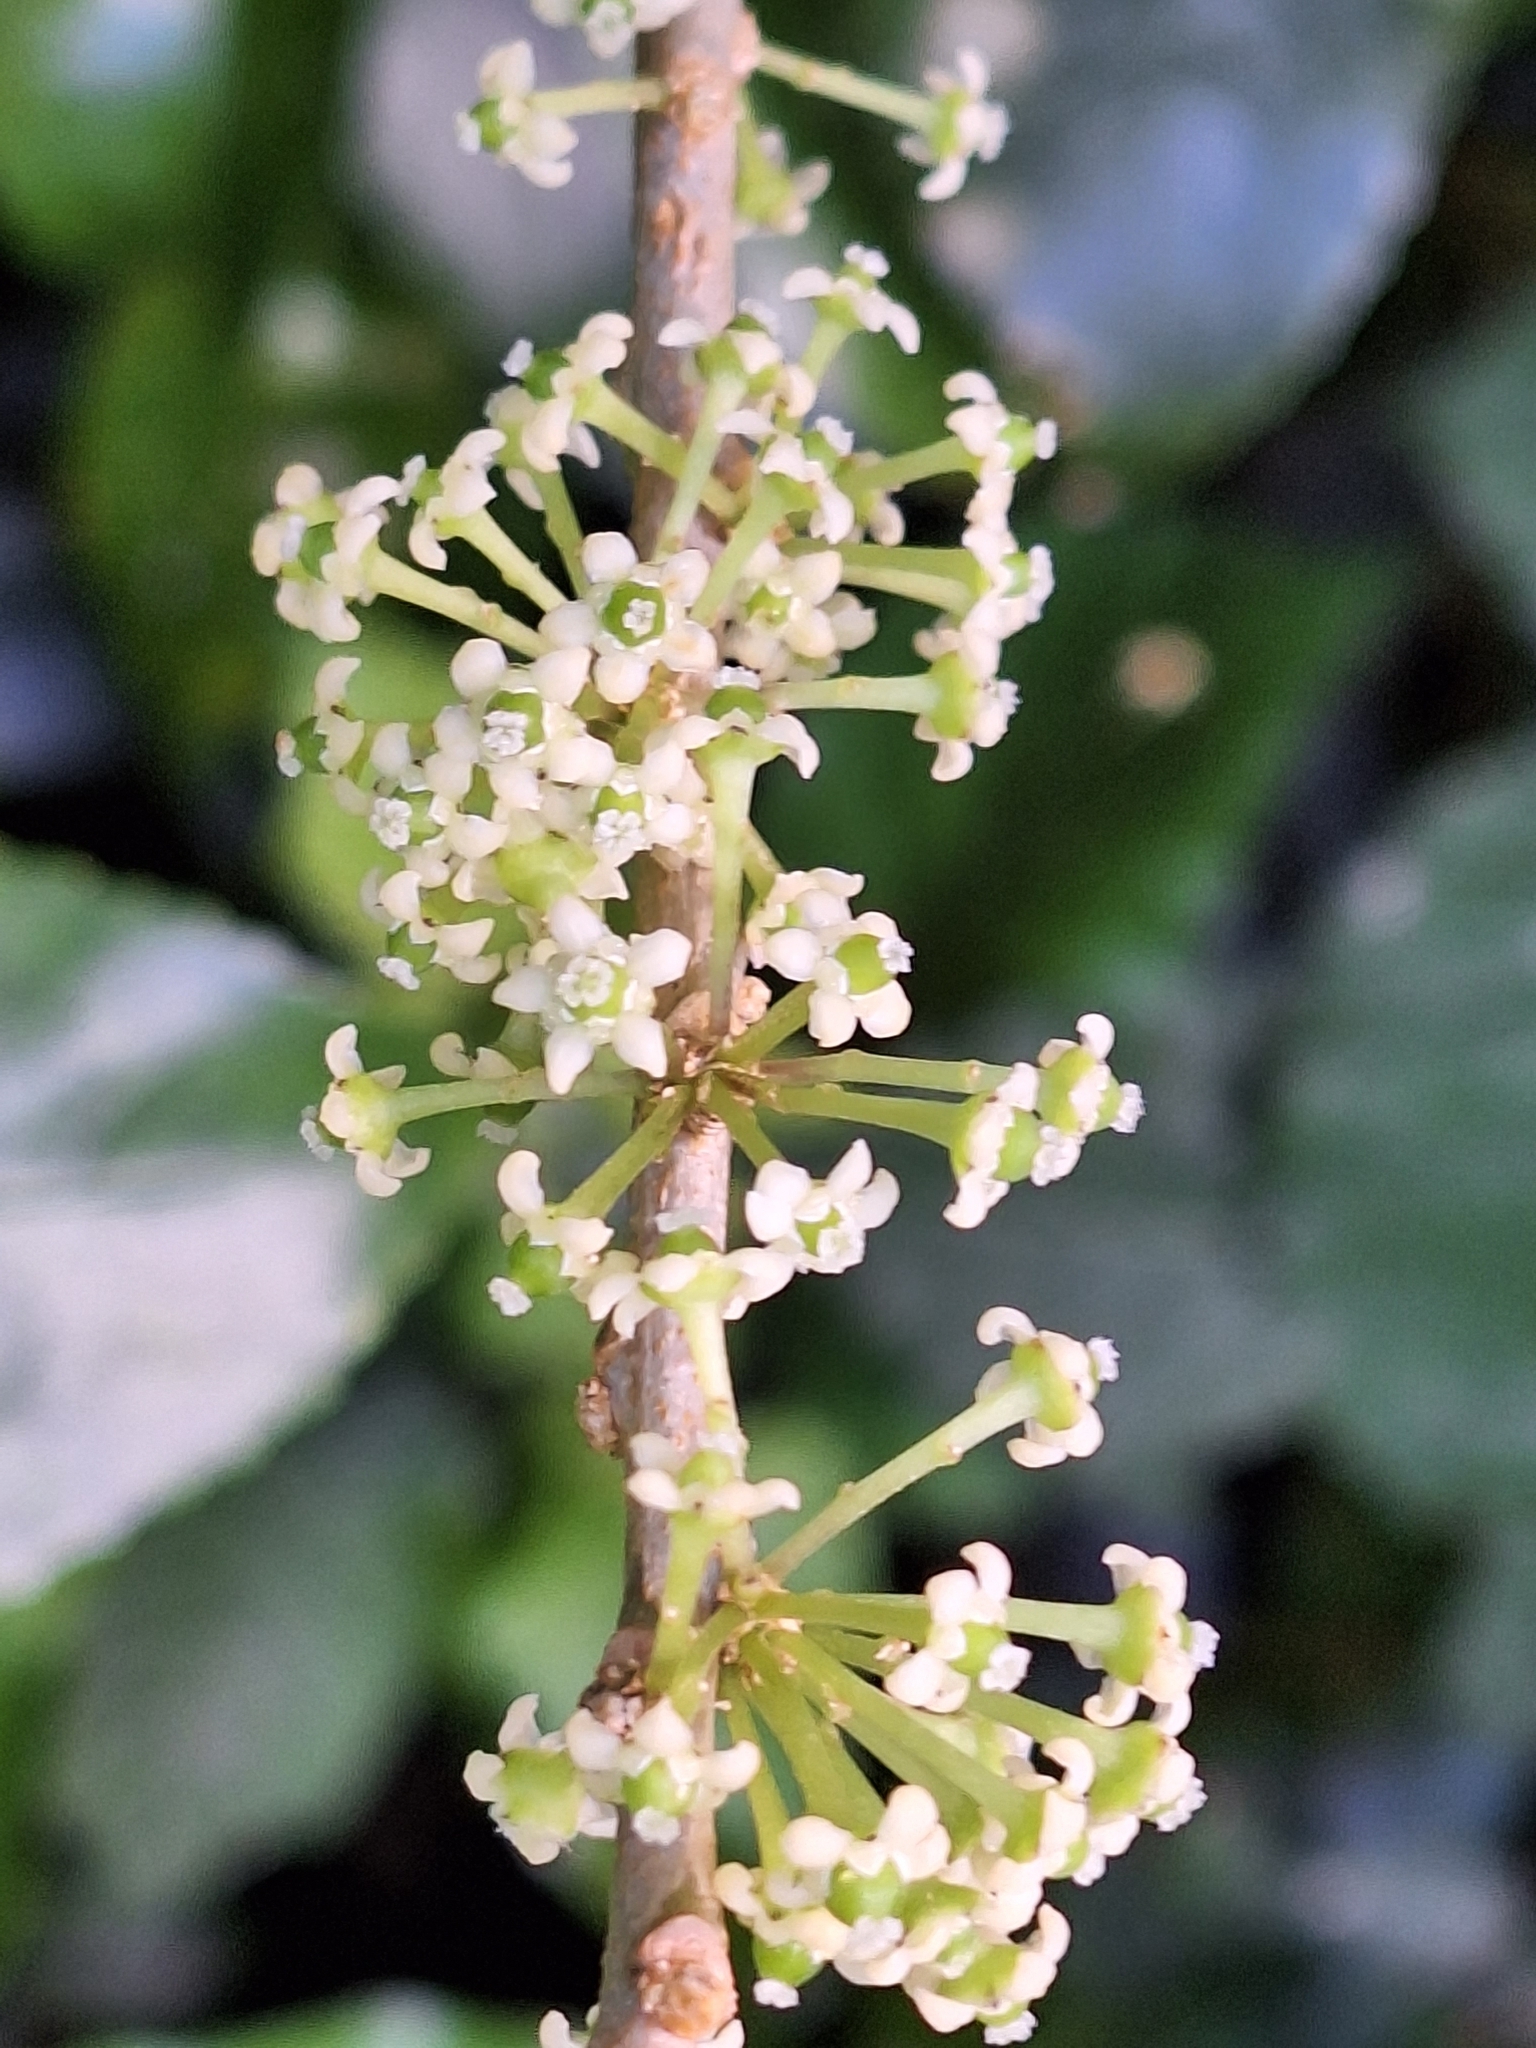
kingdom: Plantae
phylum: Tracheophyta
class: Magnoliopsida
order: Malpighiales
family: Violaceae
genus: Melicytus
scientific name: Melicytus ramiflorus
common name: Mahoe
